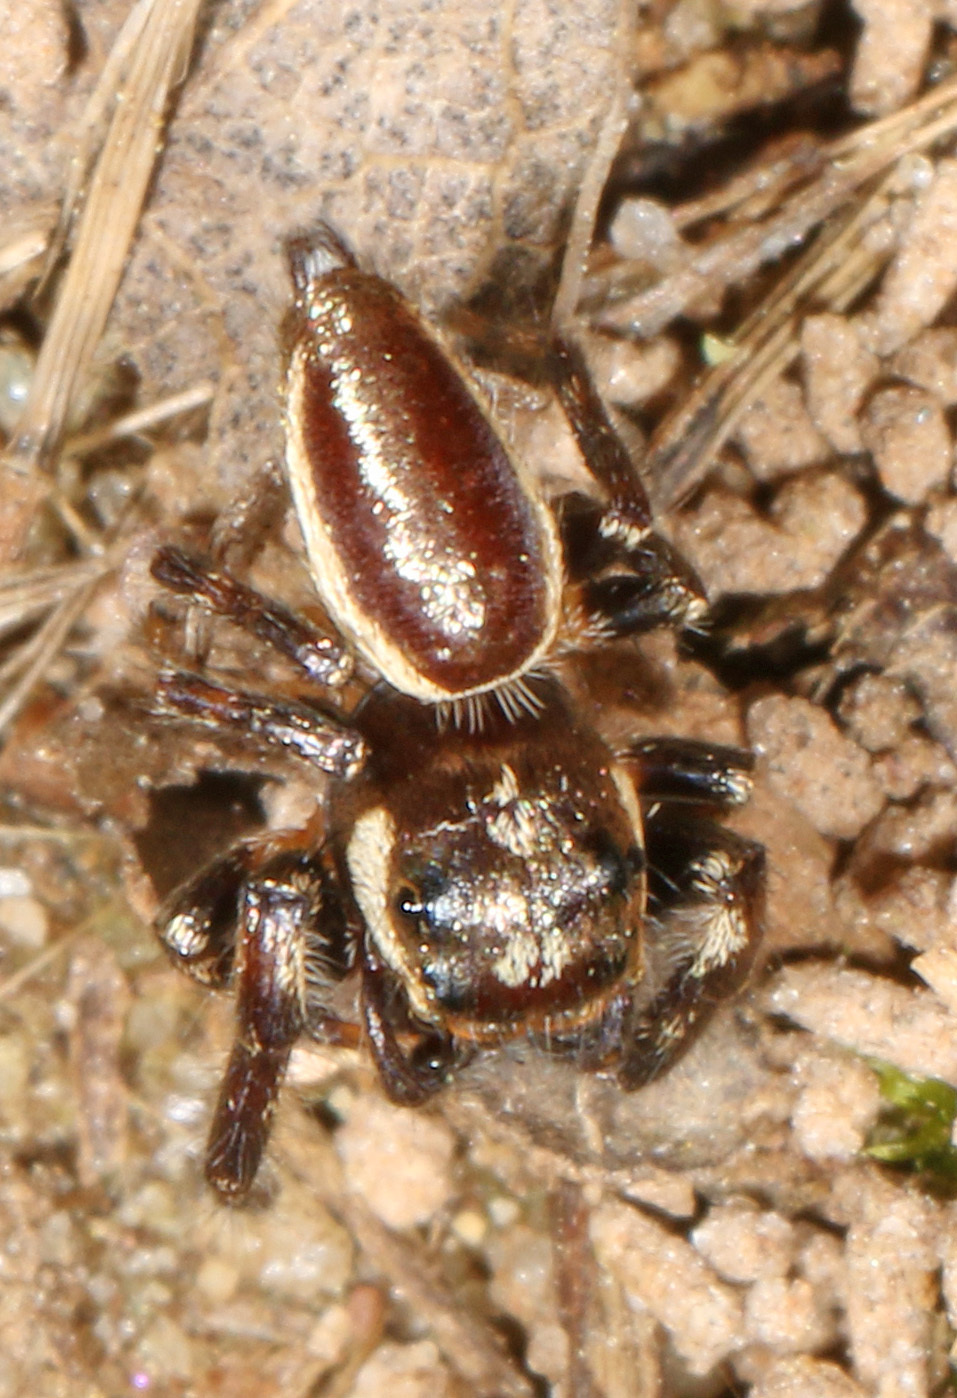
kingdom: Animalia
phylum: Arthropoda
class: Arachnida
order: Araneae
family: Salticidae
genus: Eris
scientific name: Eris militaris
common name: Bronze jumper
